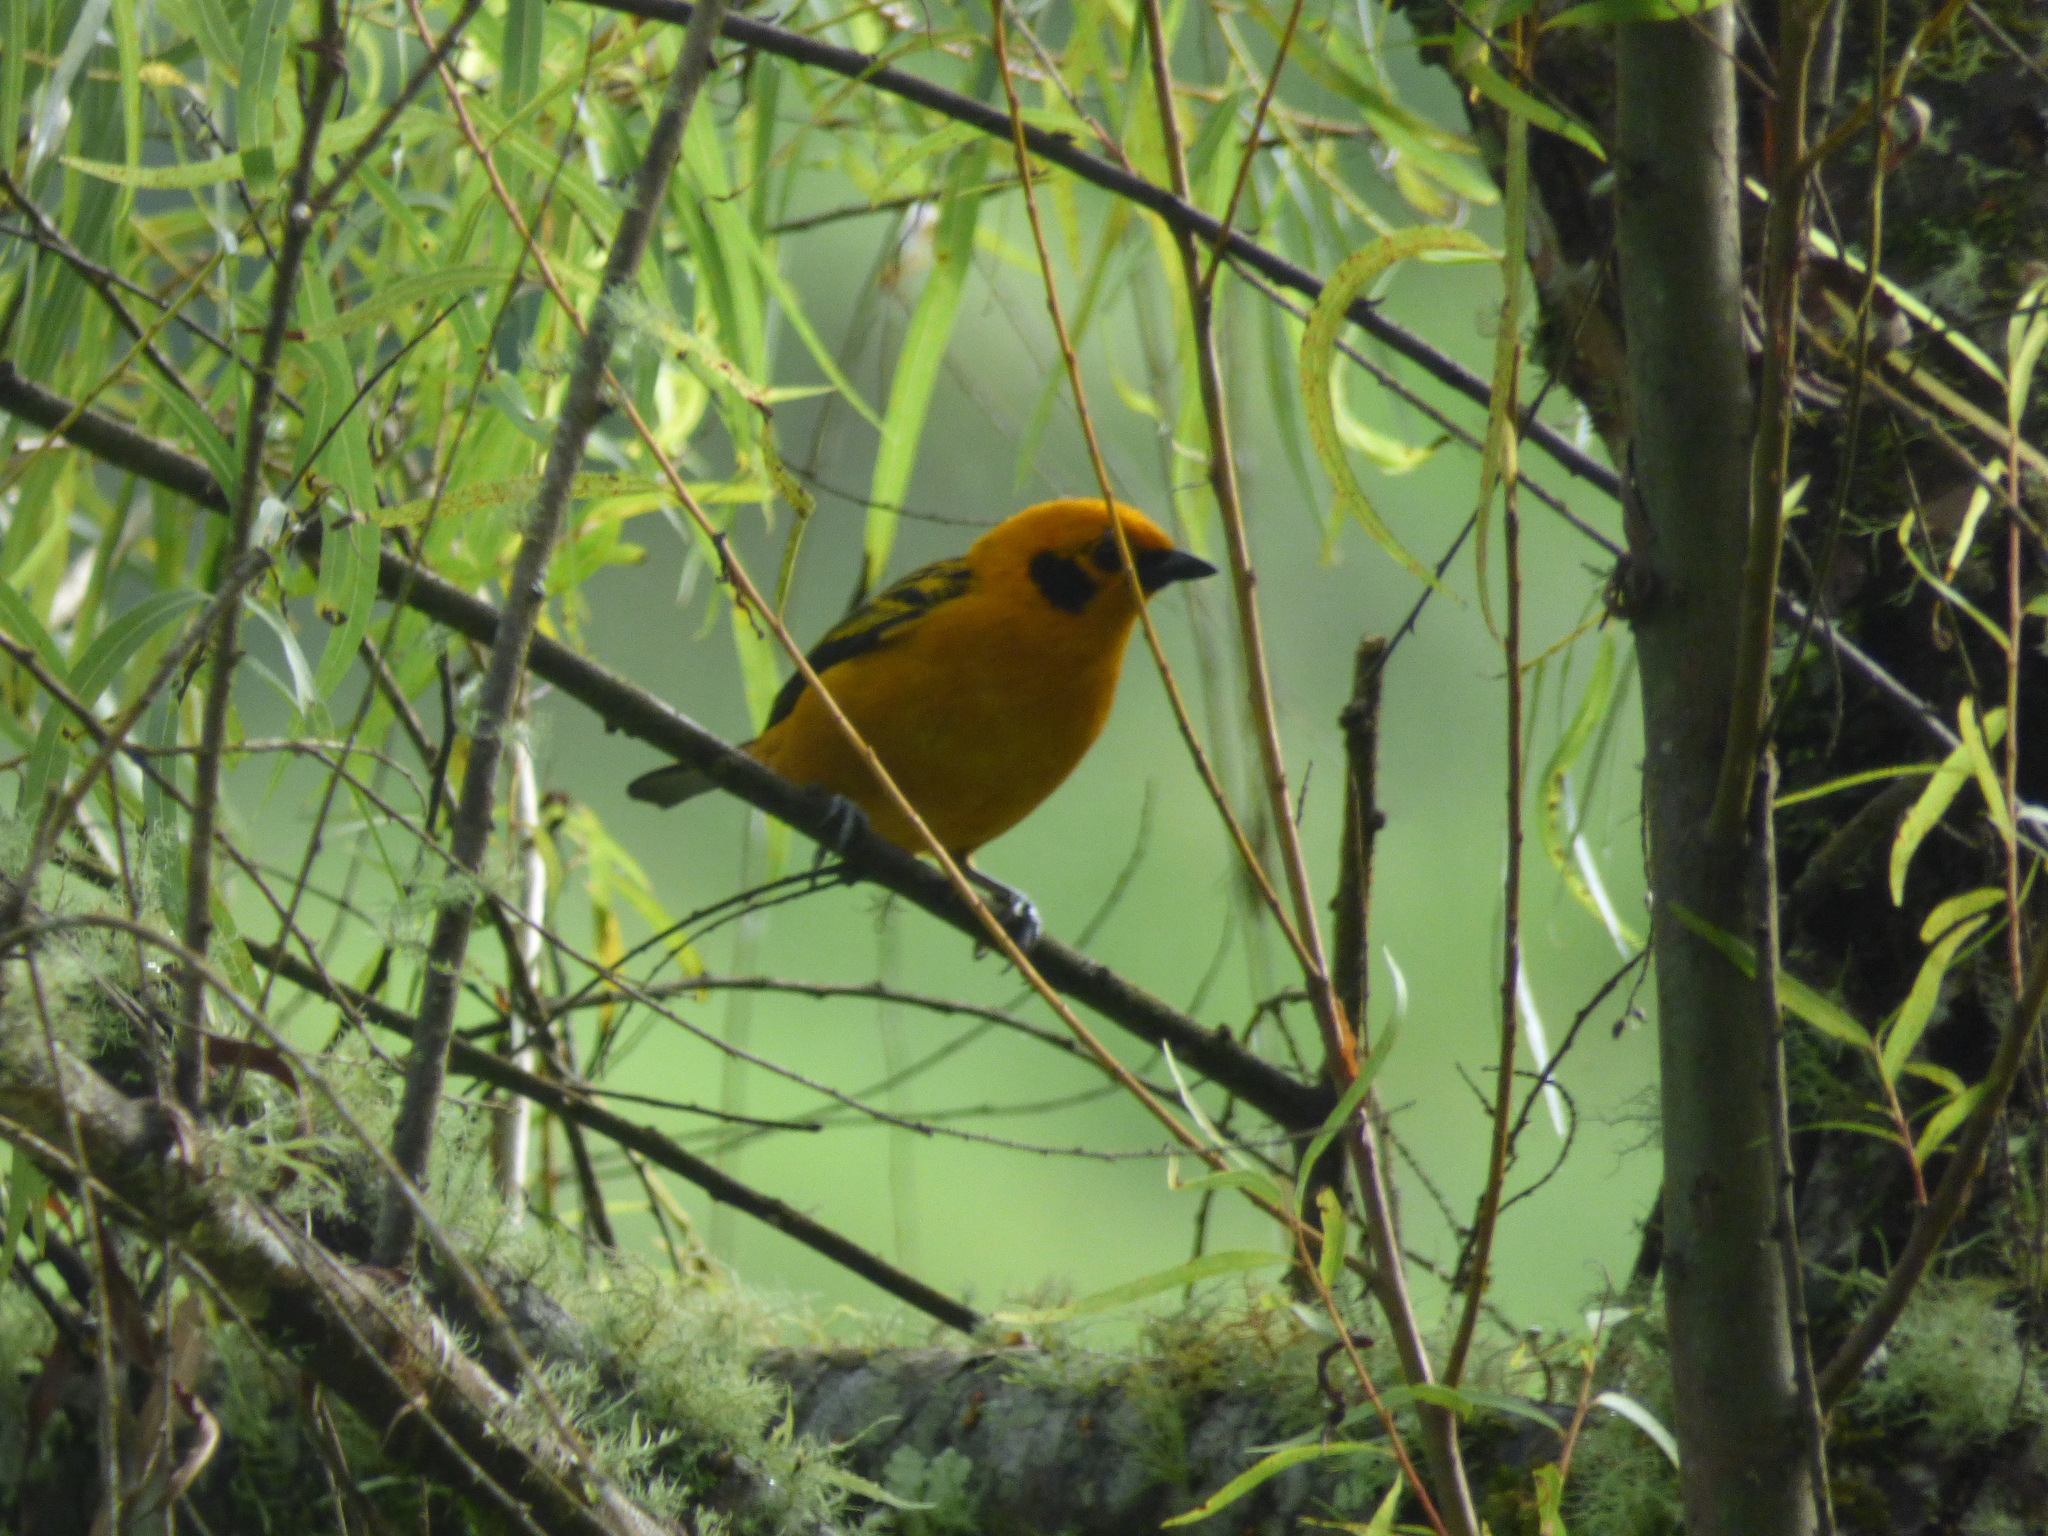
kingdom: Animalia
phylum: Chordata
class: Aves
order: Passeriformes
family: Thraupidae
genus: Tangara
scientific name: Tangara arthus
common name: Golden tanager
